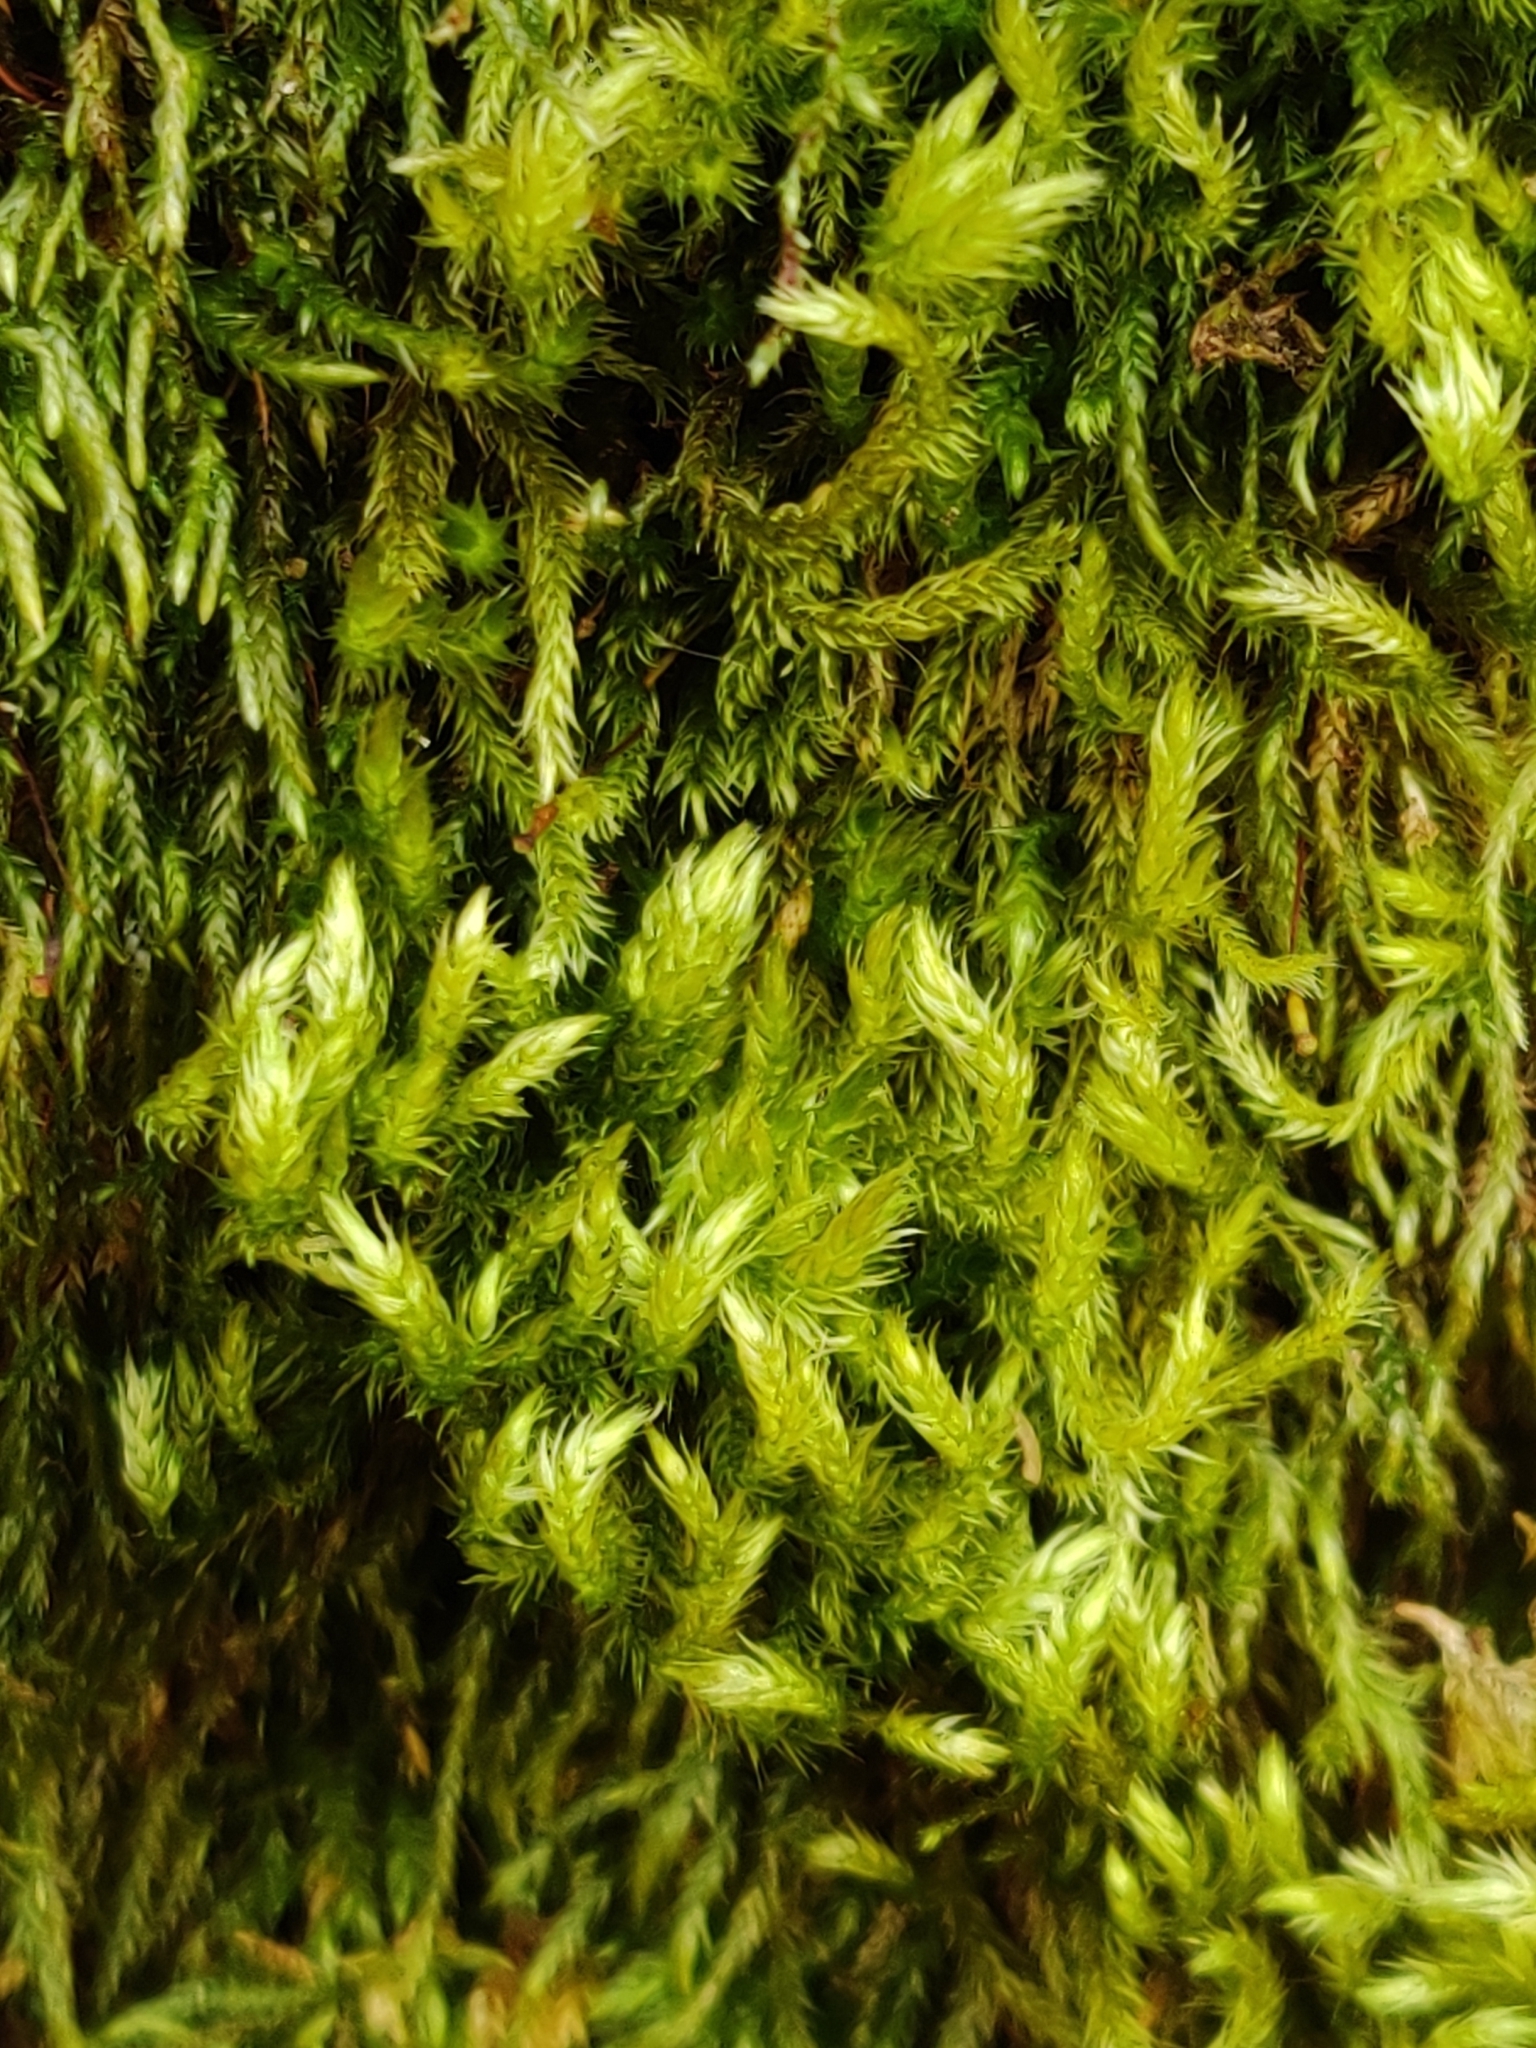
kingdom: Plantae
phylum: Bryophyta
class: Bryopsida
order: Hypnales
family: Brachytheciaceae
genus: Homalothecium
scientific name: Homalothecium fulgescens
